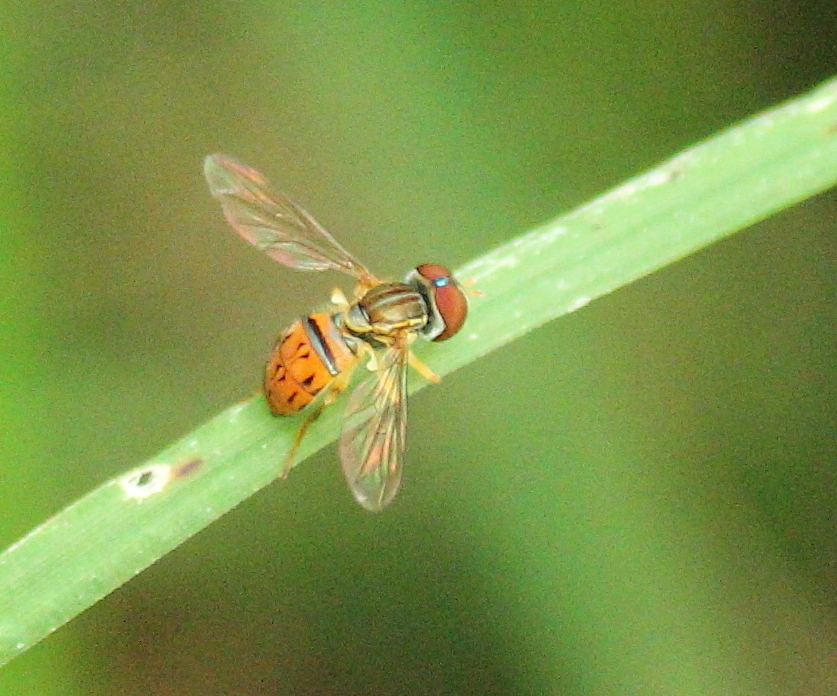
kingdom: Animalia
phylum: Arthropoda
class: Insecta
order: Diptera
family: Syrphidae
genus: Toxomerus
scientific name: Toxomerus boscii
